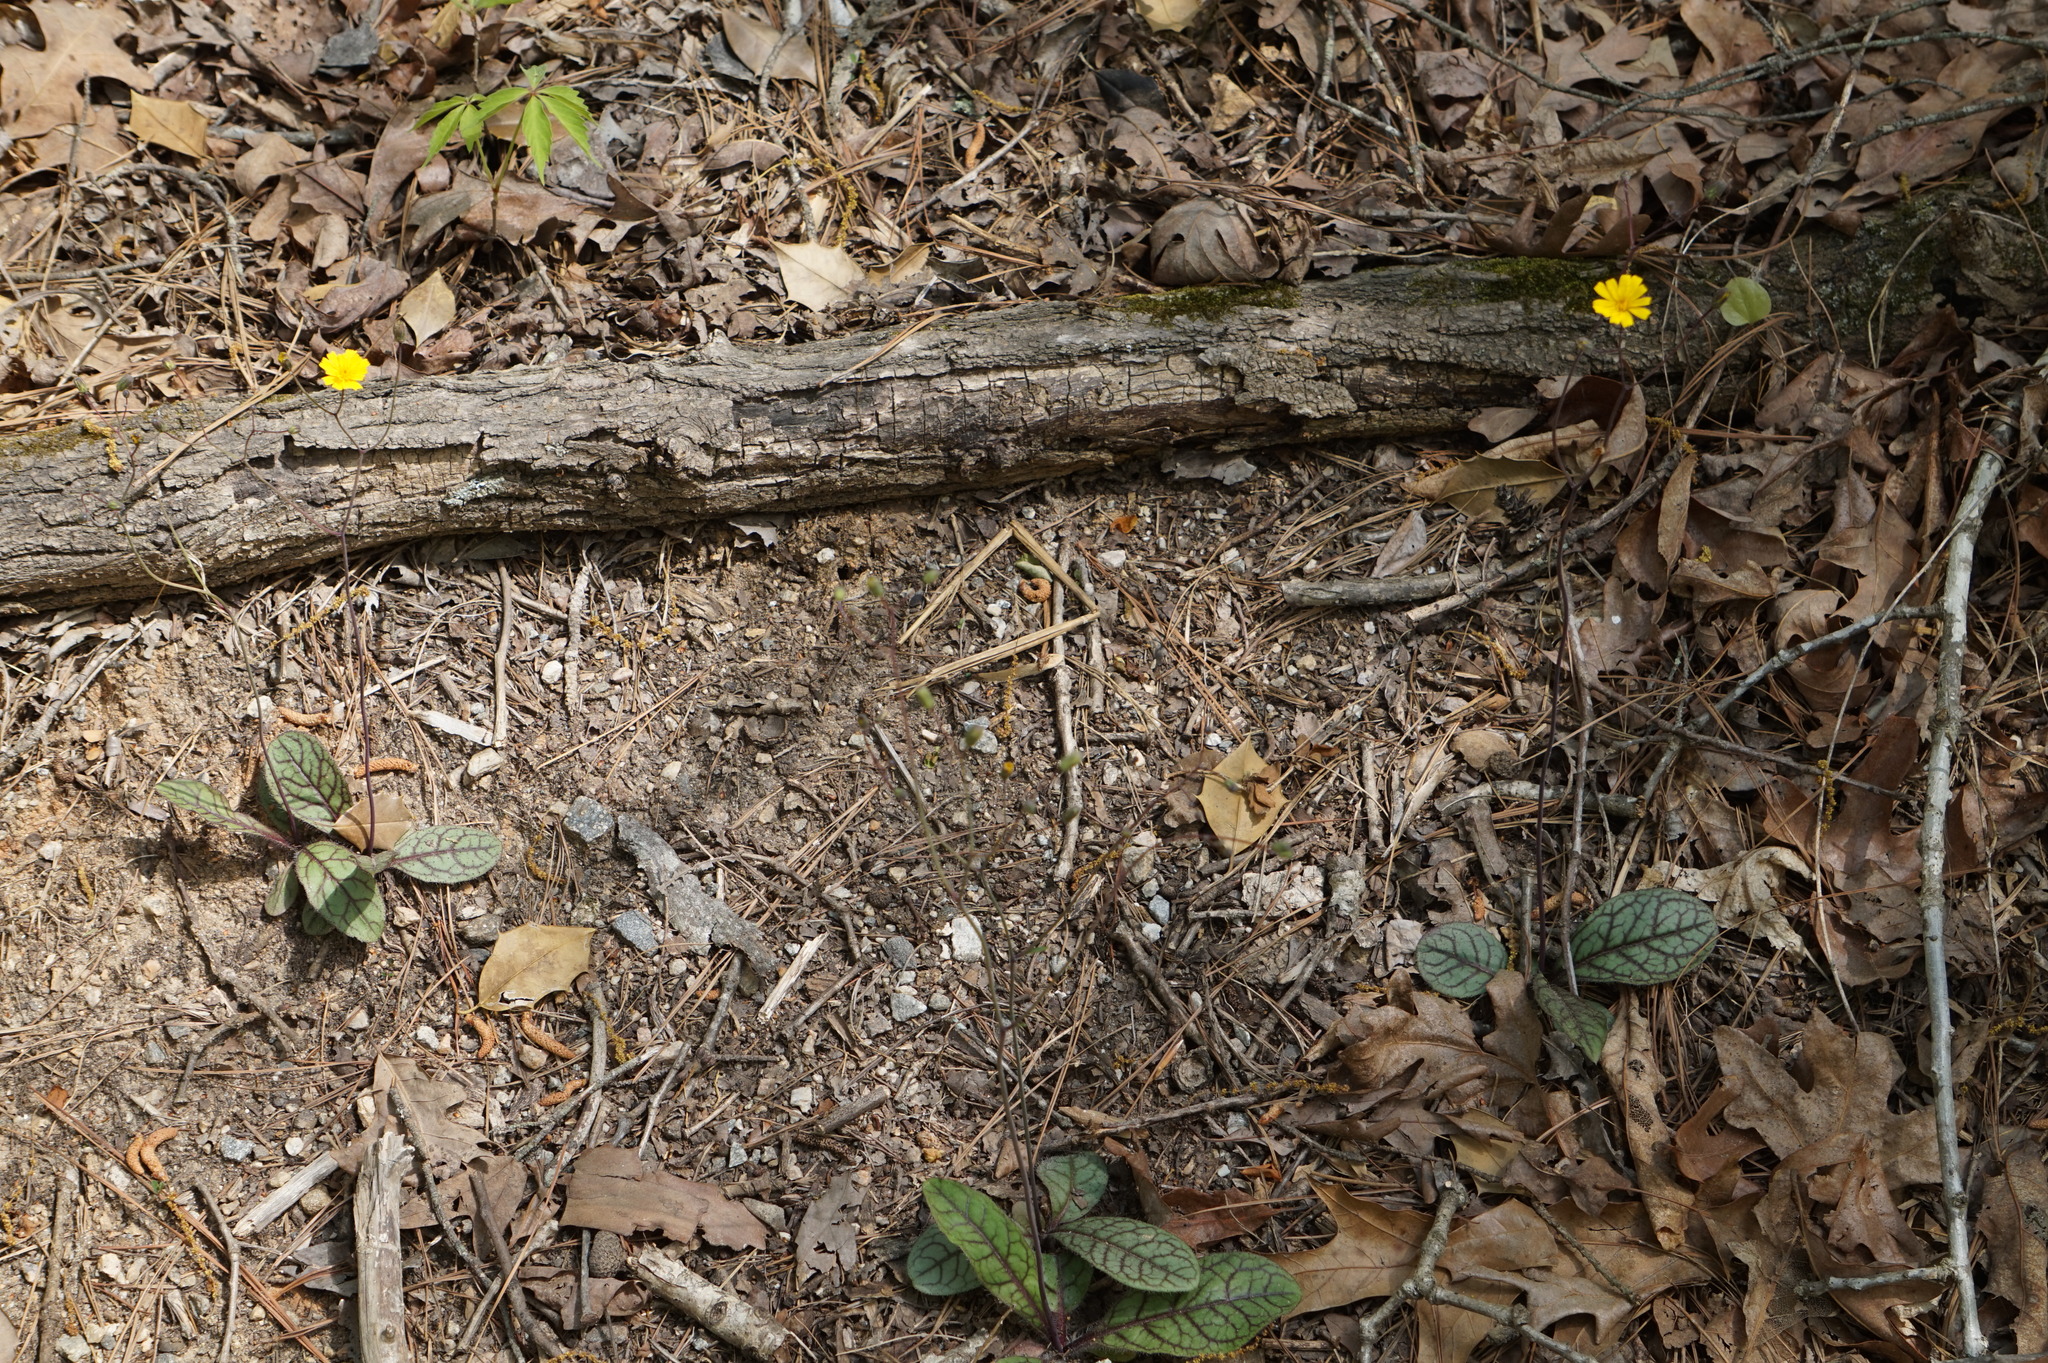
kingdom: Plantae
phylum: Tracheophyta
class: Magnoliopsida
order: Asterales
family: Asteraceae
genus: Hieracium
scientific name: Hieracium venosum
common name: Rattlesnake hawkweed
